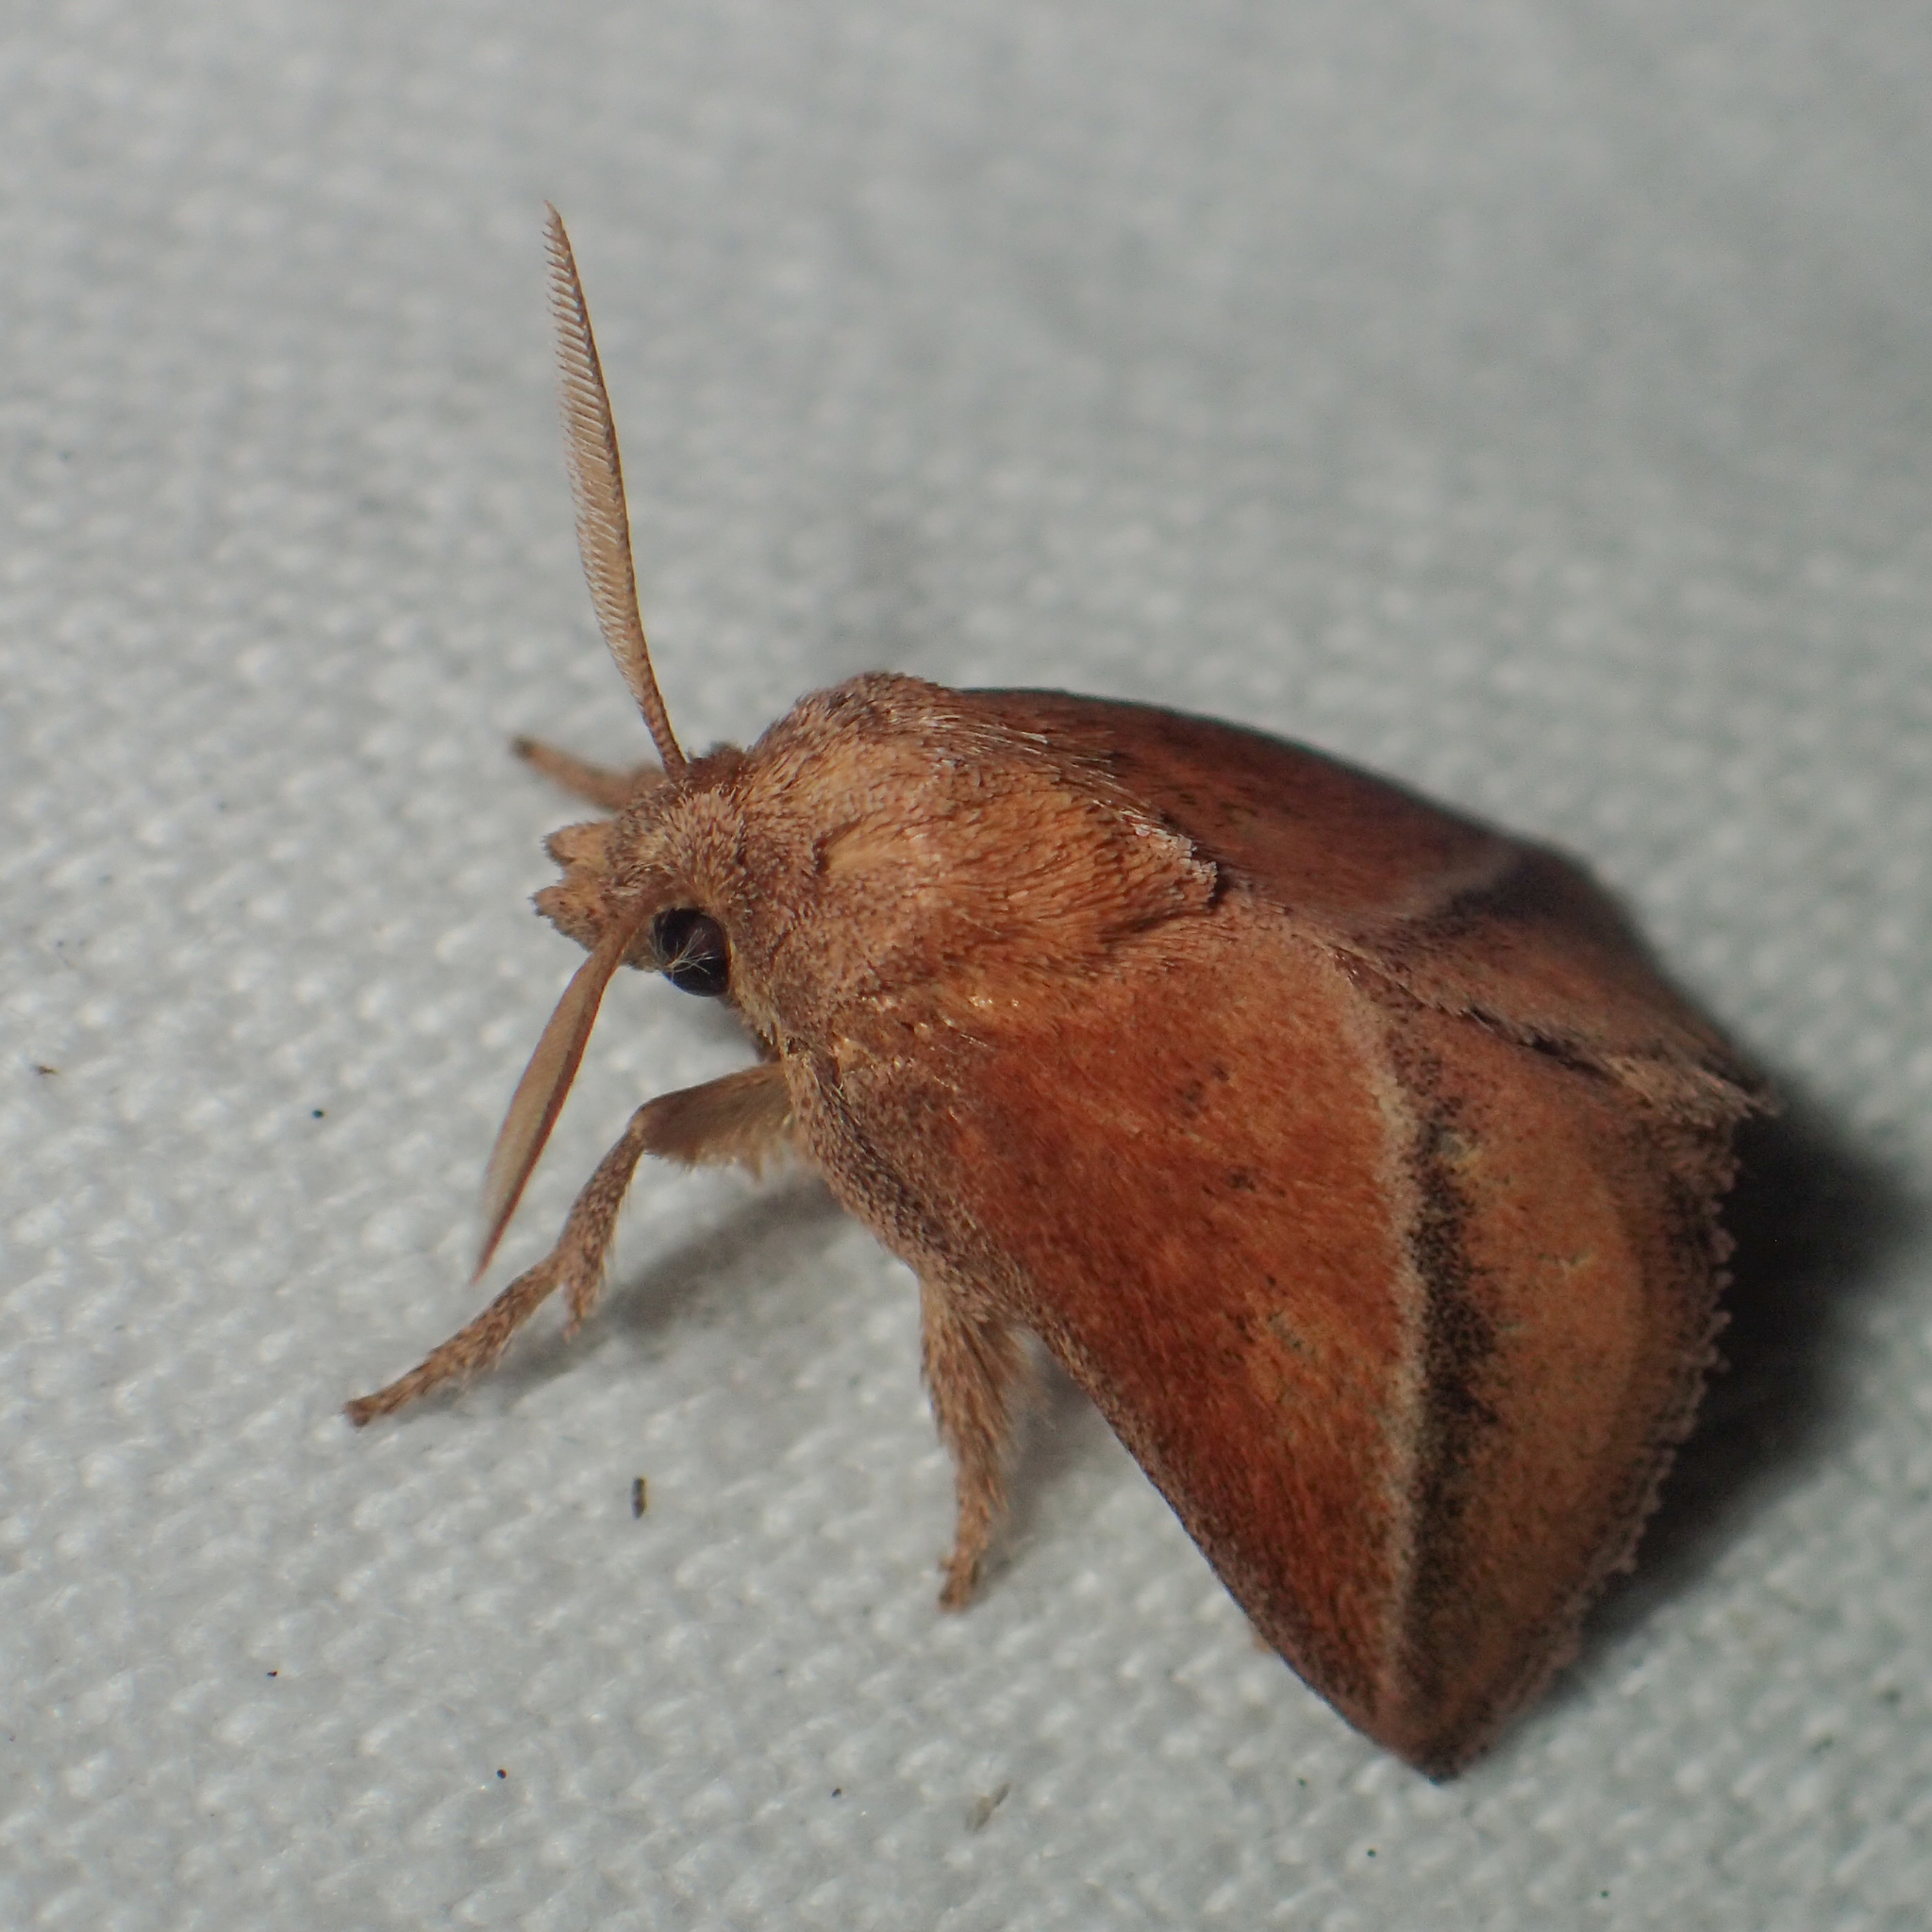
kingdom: Animalia
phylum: Arthropoda
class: Insecta
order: Lepidoptera
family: Limacodidae
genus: Oxyplax
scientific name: Oxyplax pallivitta
